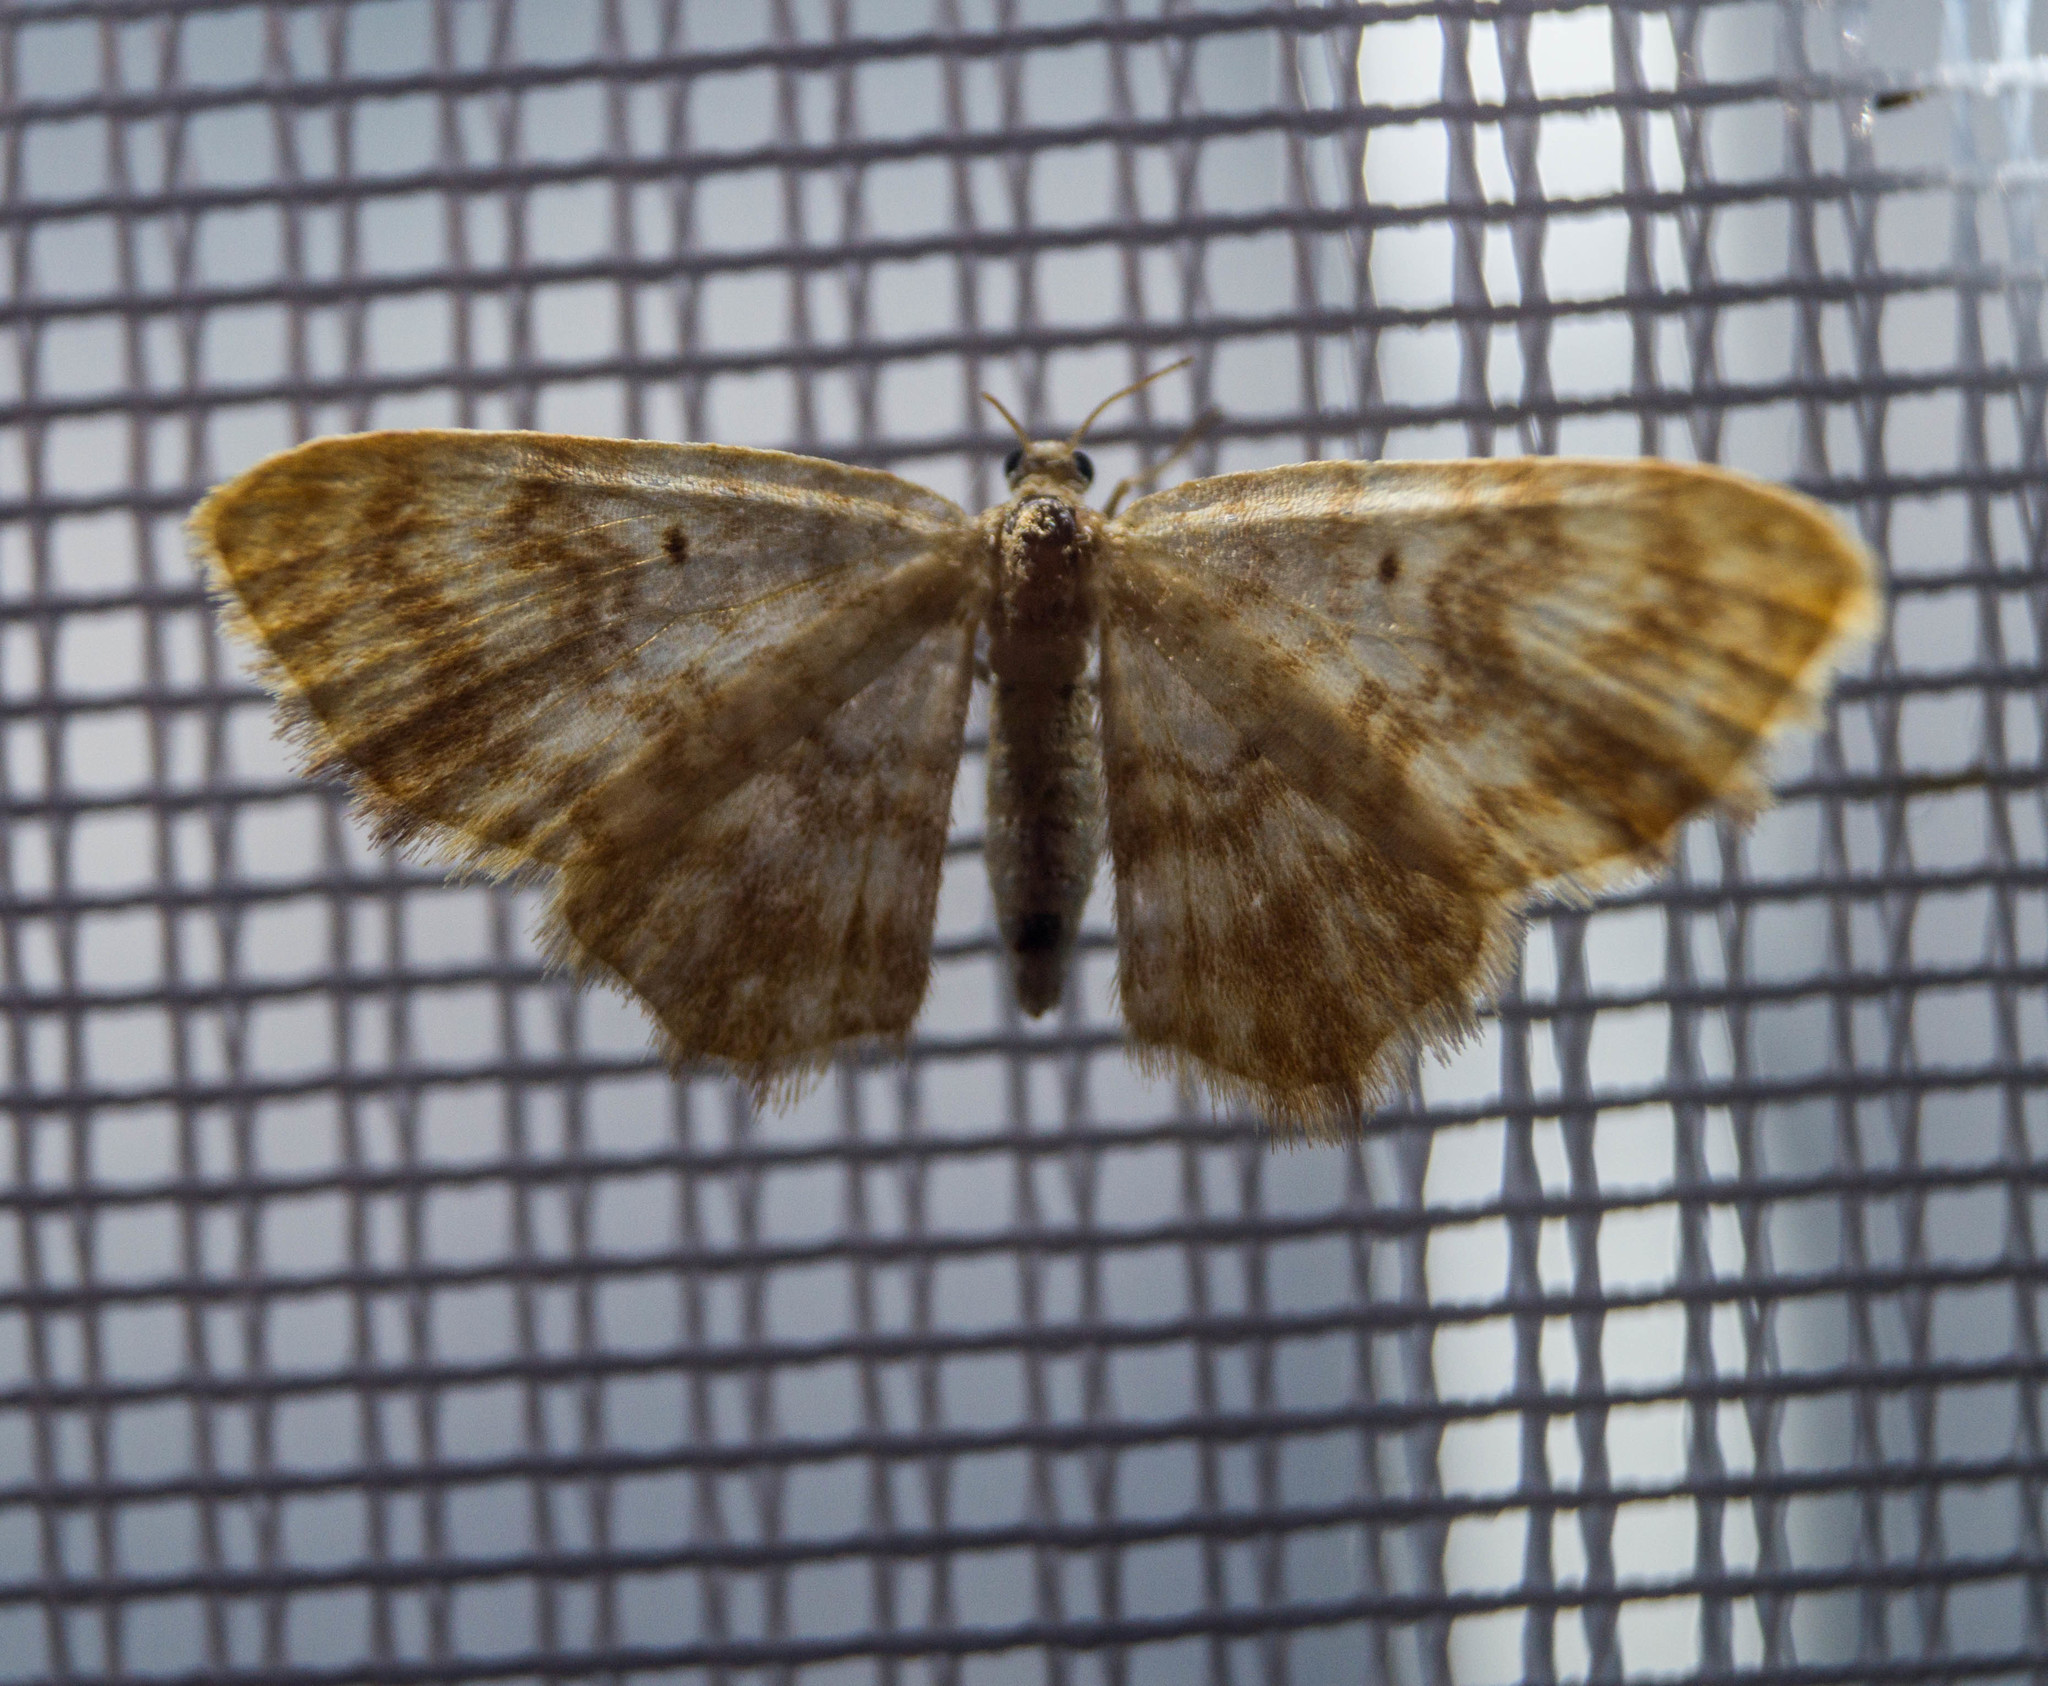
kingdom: Animalia
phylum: Arthropoda
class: Insecta
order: Lepidoptera
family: Geometridae
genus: Hydrelia
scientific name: Hydrelia flammeolaria
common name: Small yellow wave
